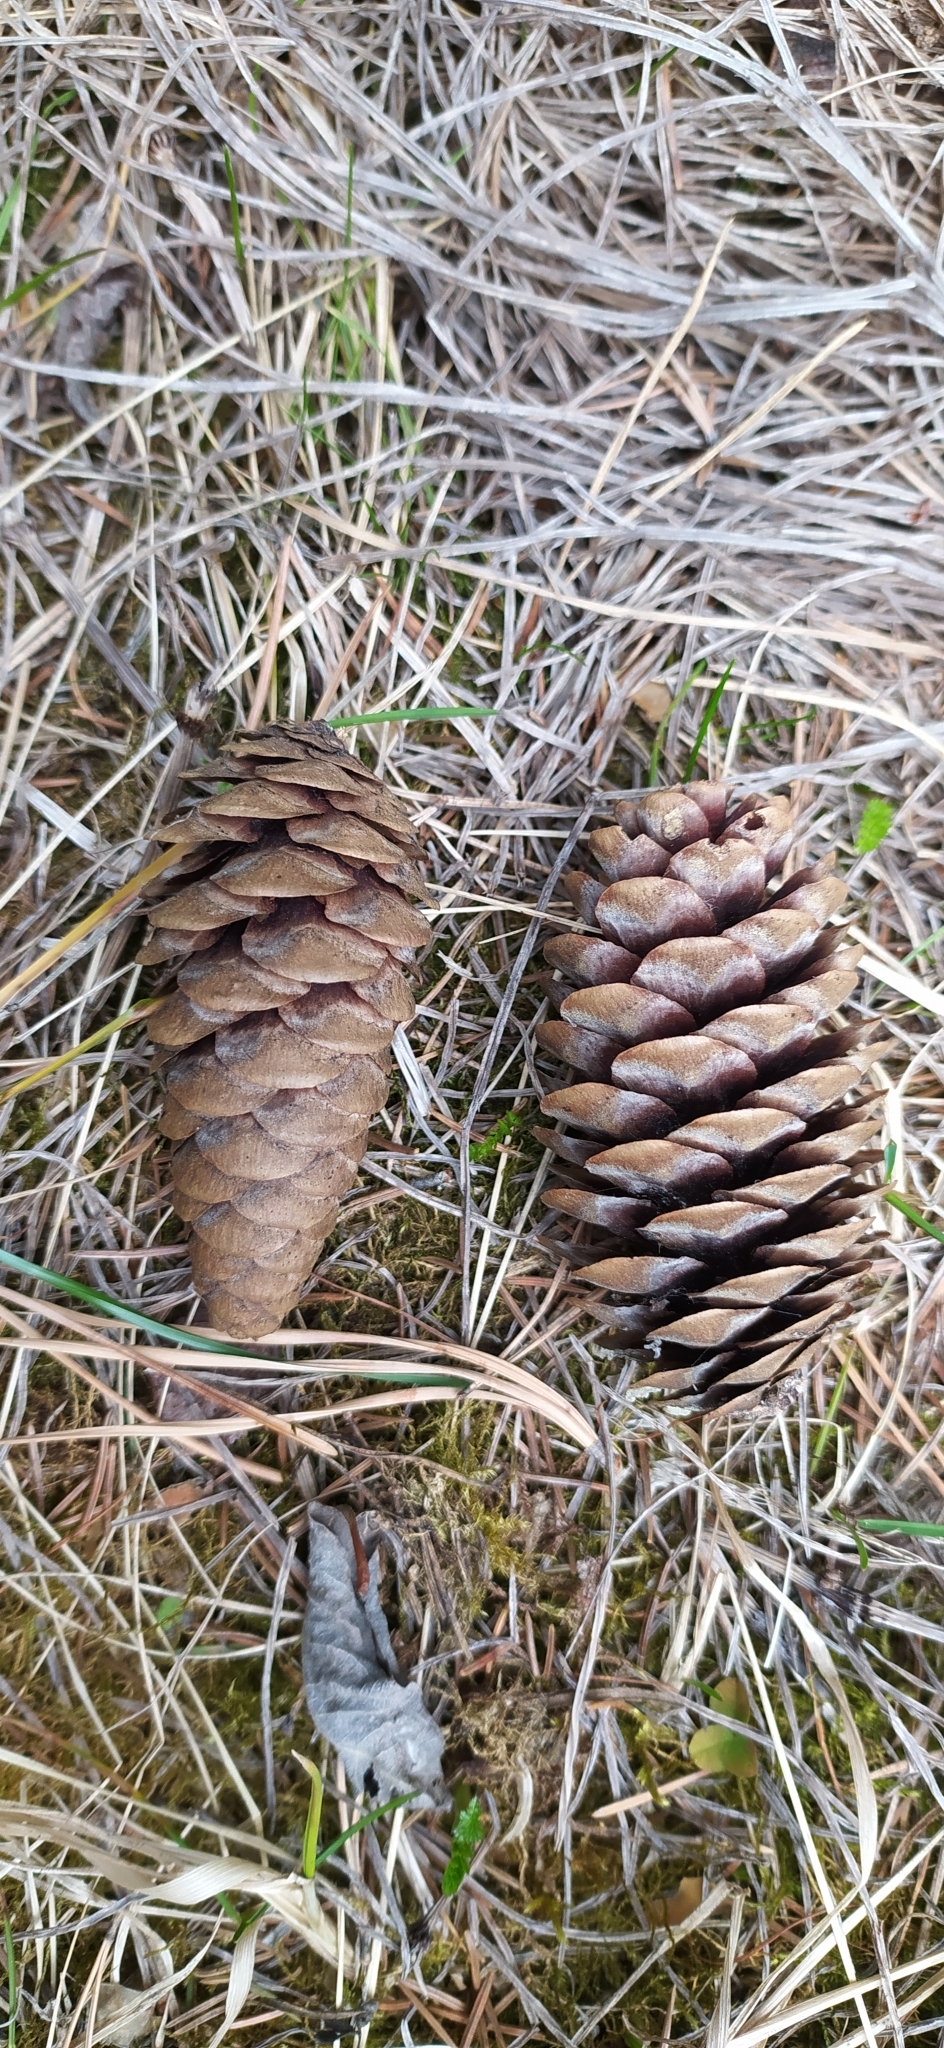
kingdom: Plantae
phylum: Tracheophyta
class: Pinopsida
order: Pinales
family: Pinaceae
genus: Picea
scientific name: Picea obovata
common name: Siberian spruce
